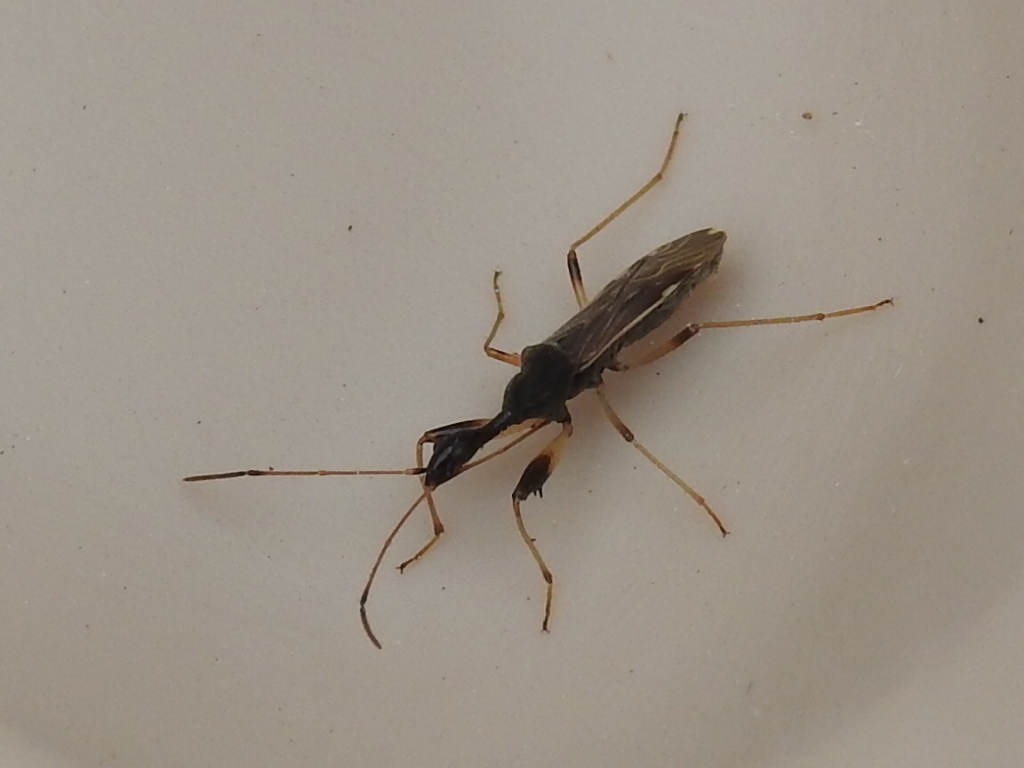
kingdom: Animalia
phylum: Arthropoda
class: Insecta
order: Hemiptera
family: Rhyparochromidae
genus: Myodocha
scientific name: Myodocha serripes
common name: Long-necked seed bug
